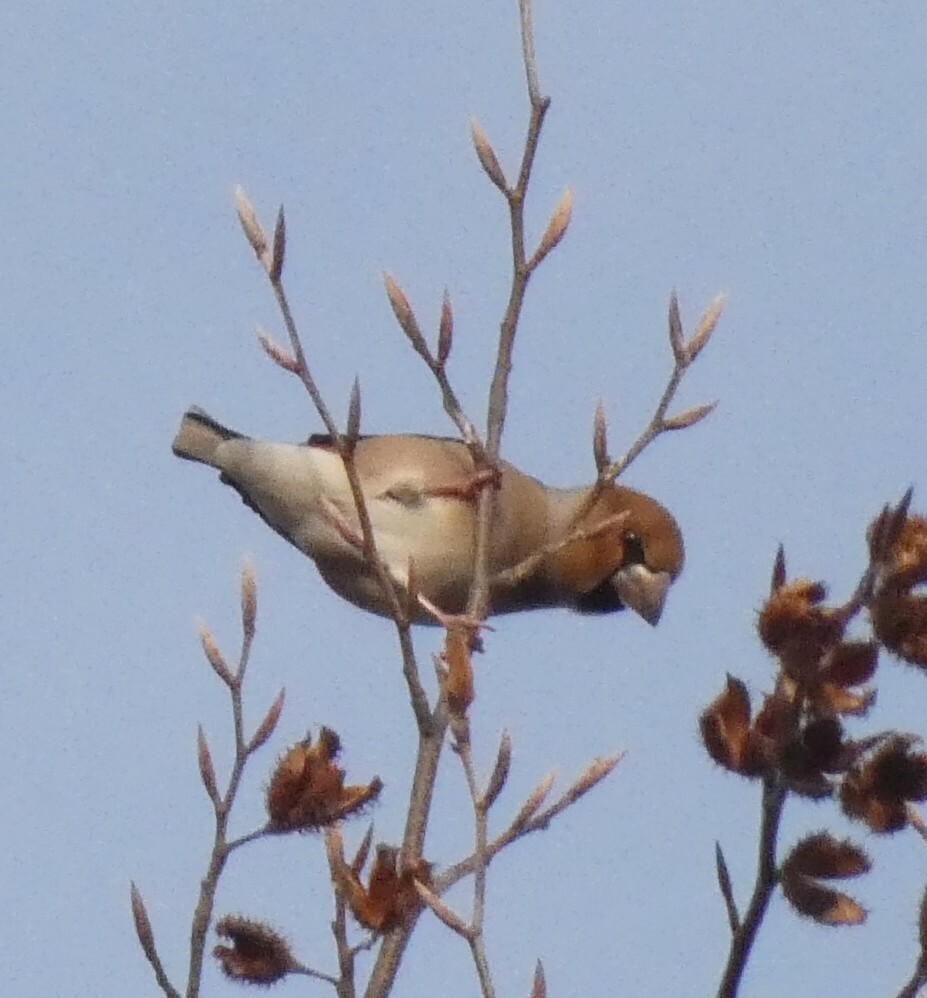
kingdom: Animalia
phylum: Chordata
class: Aves
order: Passeriformes
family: Fringillidae
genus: Coccothraustes
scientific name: Coccothraustes coccothraustes
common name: Hawfinch
